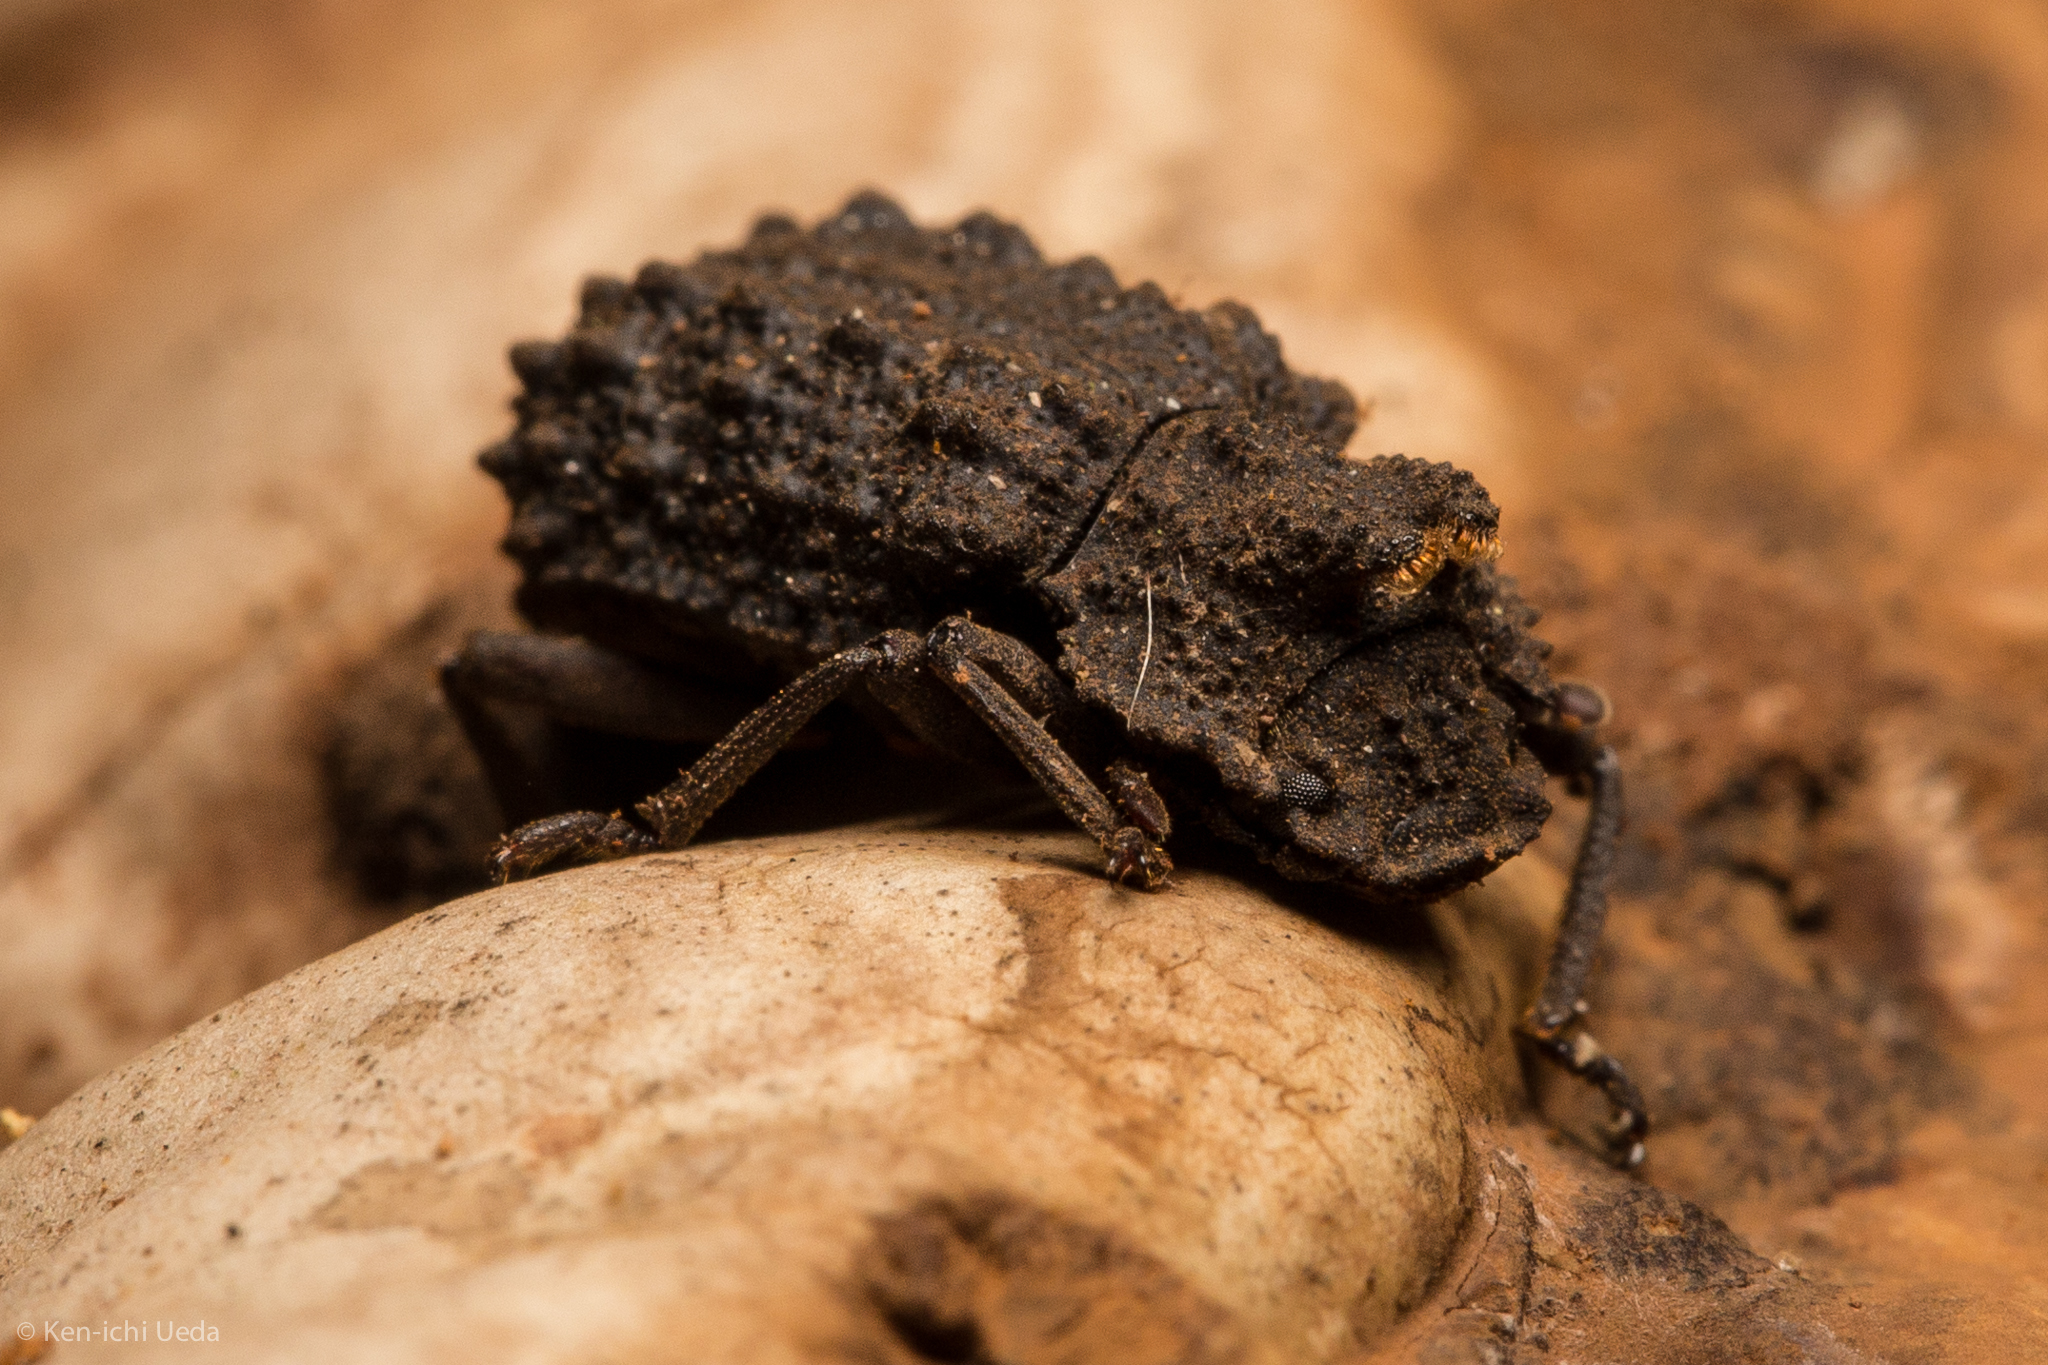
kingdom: Animalia
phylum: Arthropoda
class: Insecta
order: Coleoptera
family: Tenebrionidae
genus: Gnatocerus
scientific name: Gnatocerus cornutus
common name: Broad-horned flour beetle
